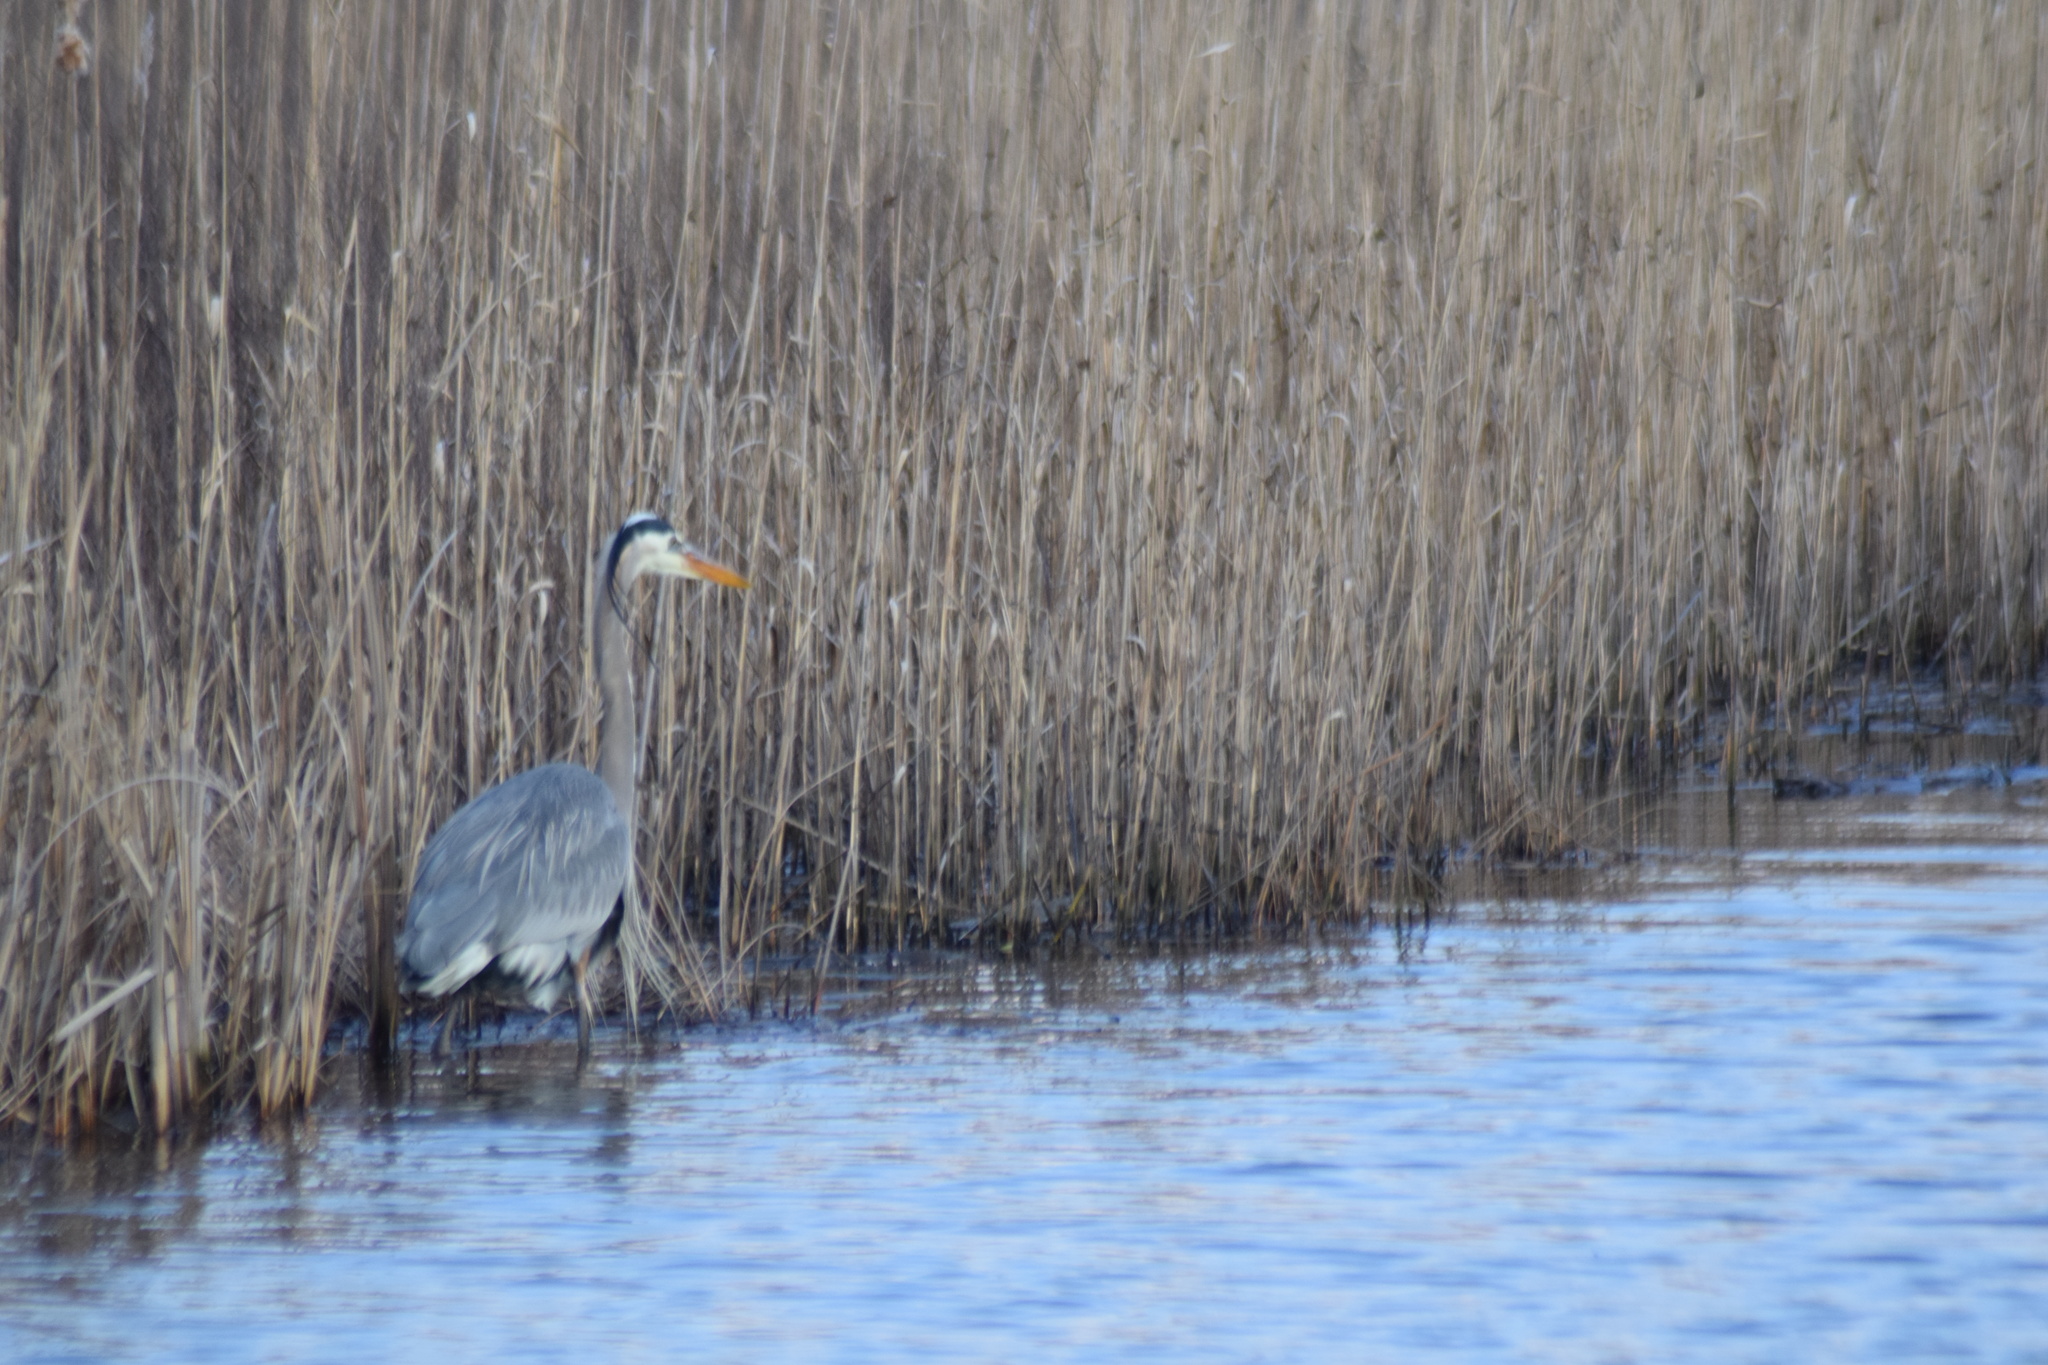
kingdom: Animalia
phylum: Chordata
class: Aves
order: Pelecaniformes
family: Ardeidae
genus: Ardea
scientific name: Ardea herodias
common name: Great blue heron
